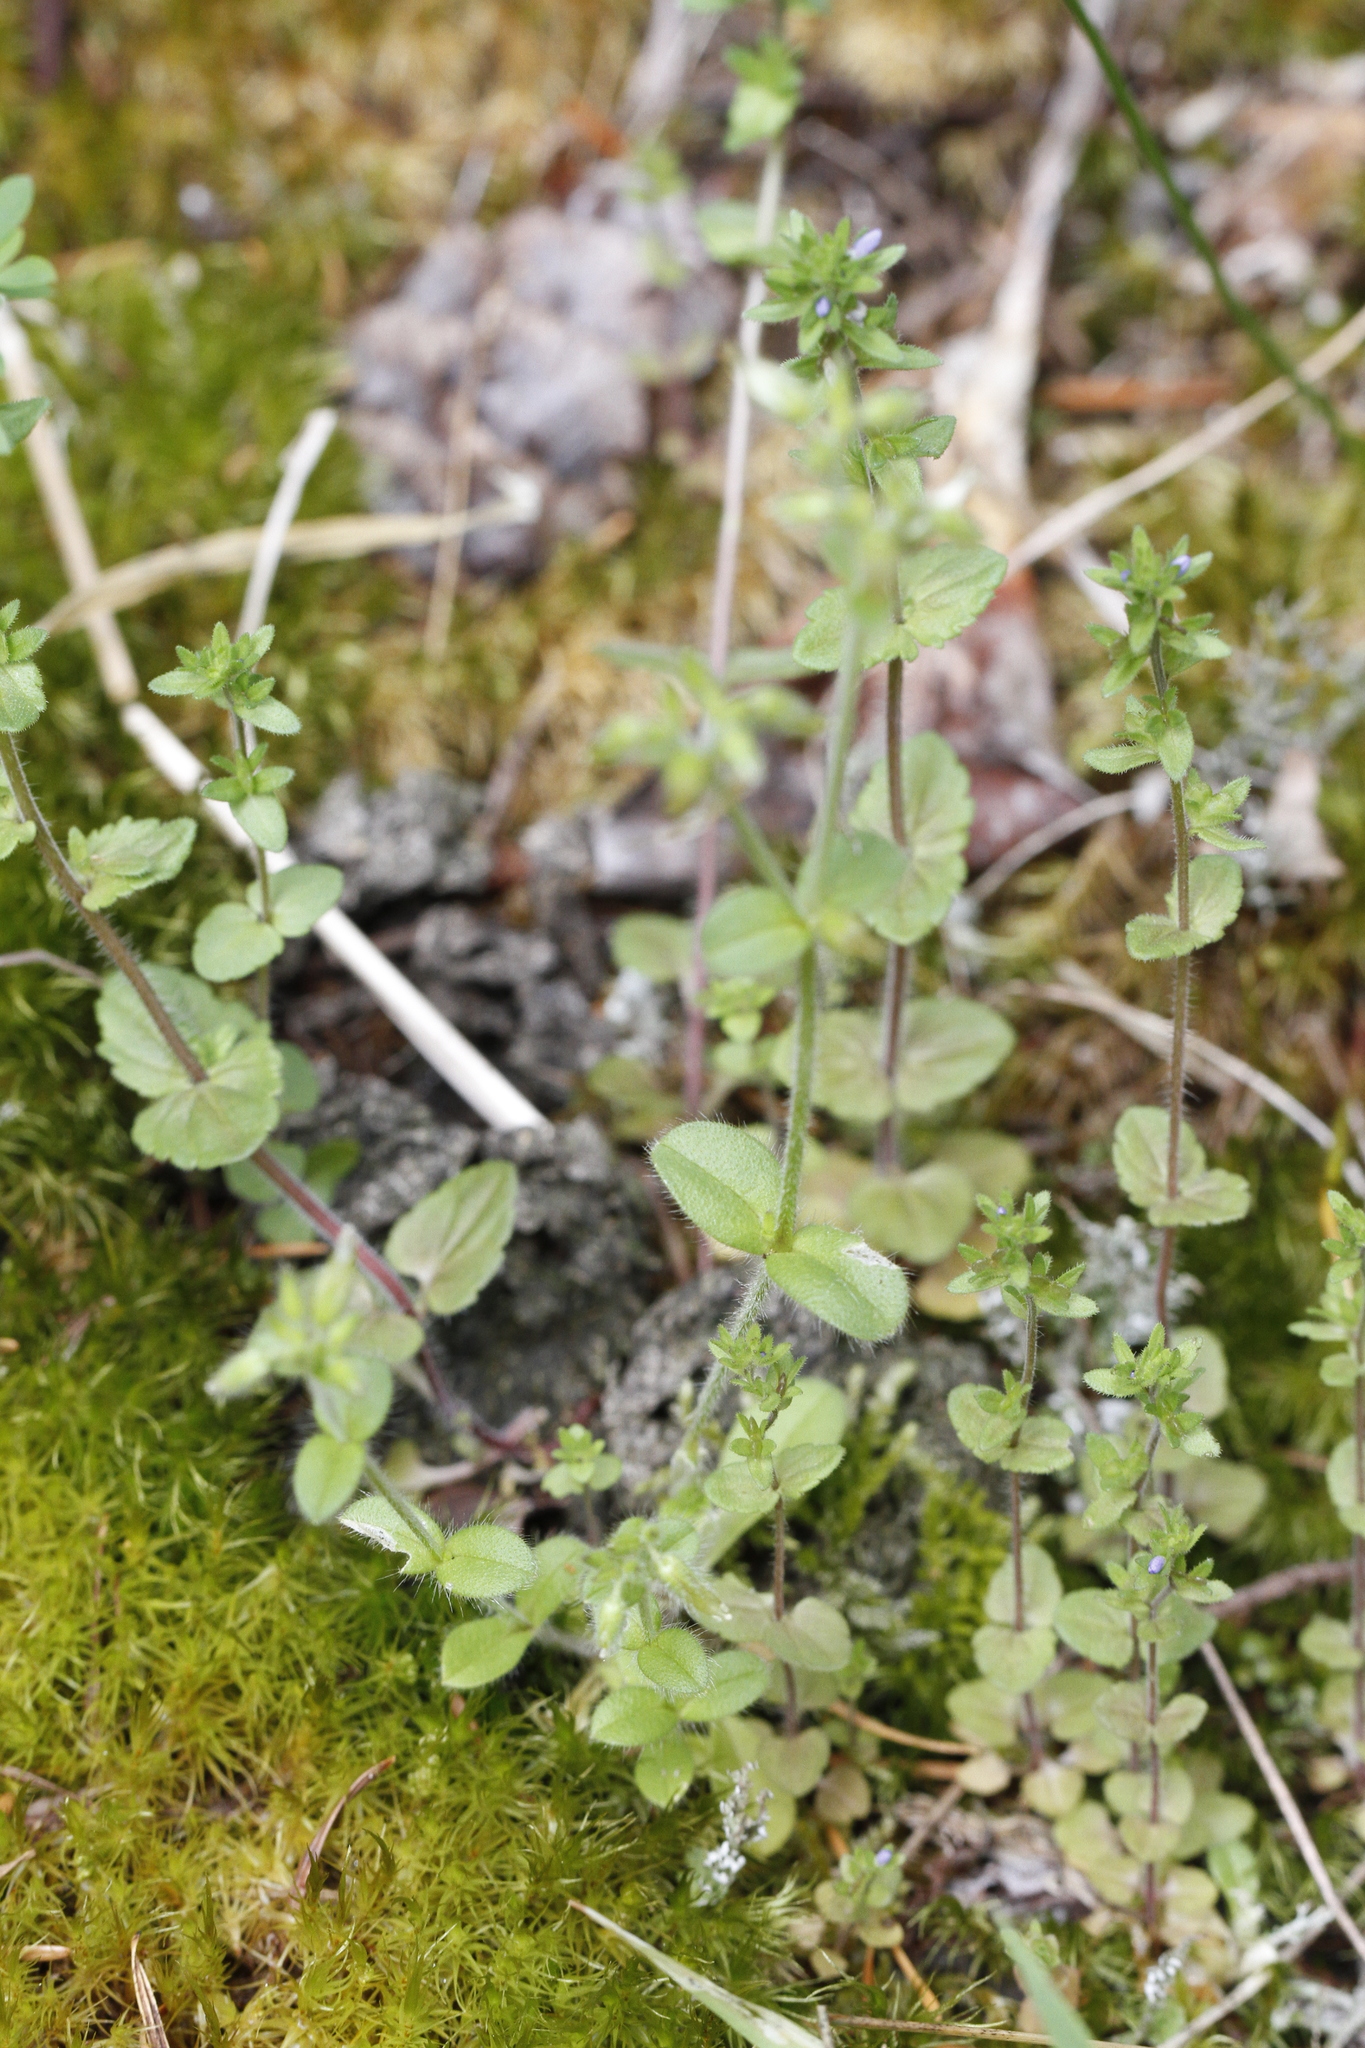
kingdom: Plantae
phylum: Tracheophyta
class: Magnoliopsida
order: Lamiales
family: Plantaginaceae
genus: Veronica
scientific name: Veronica arvensis
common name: Corn speedwell
